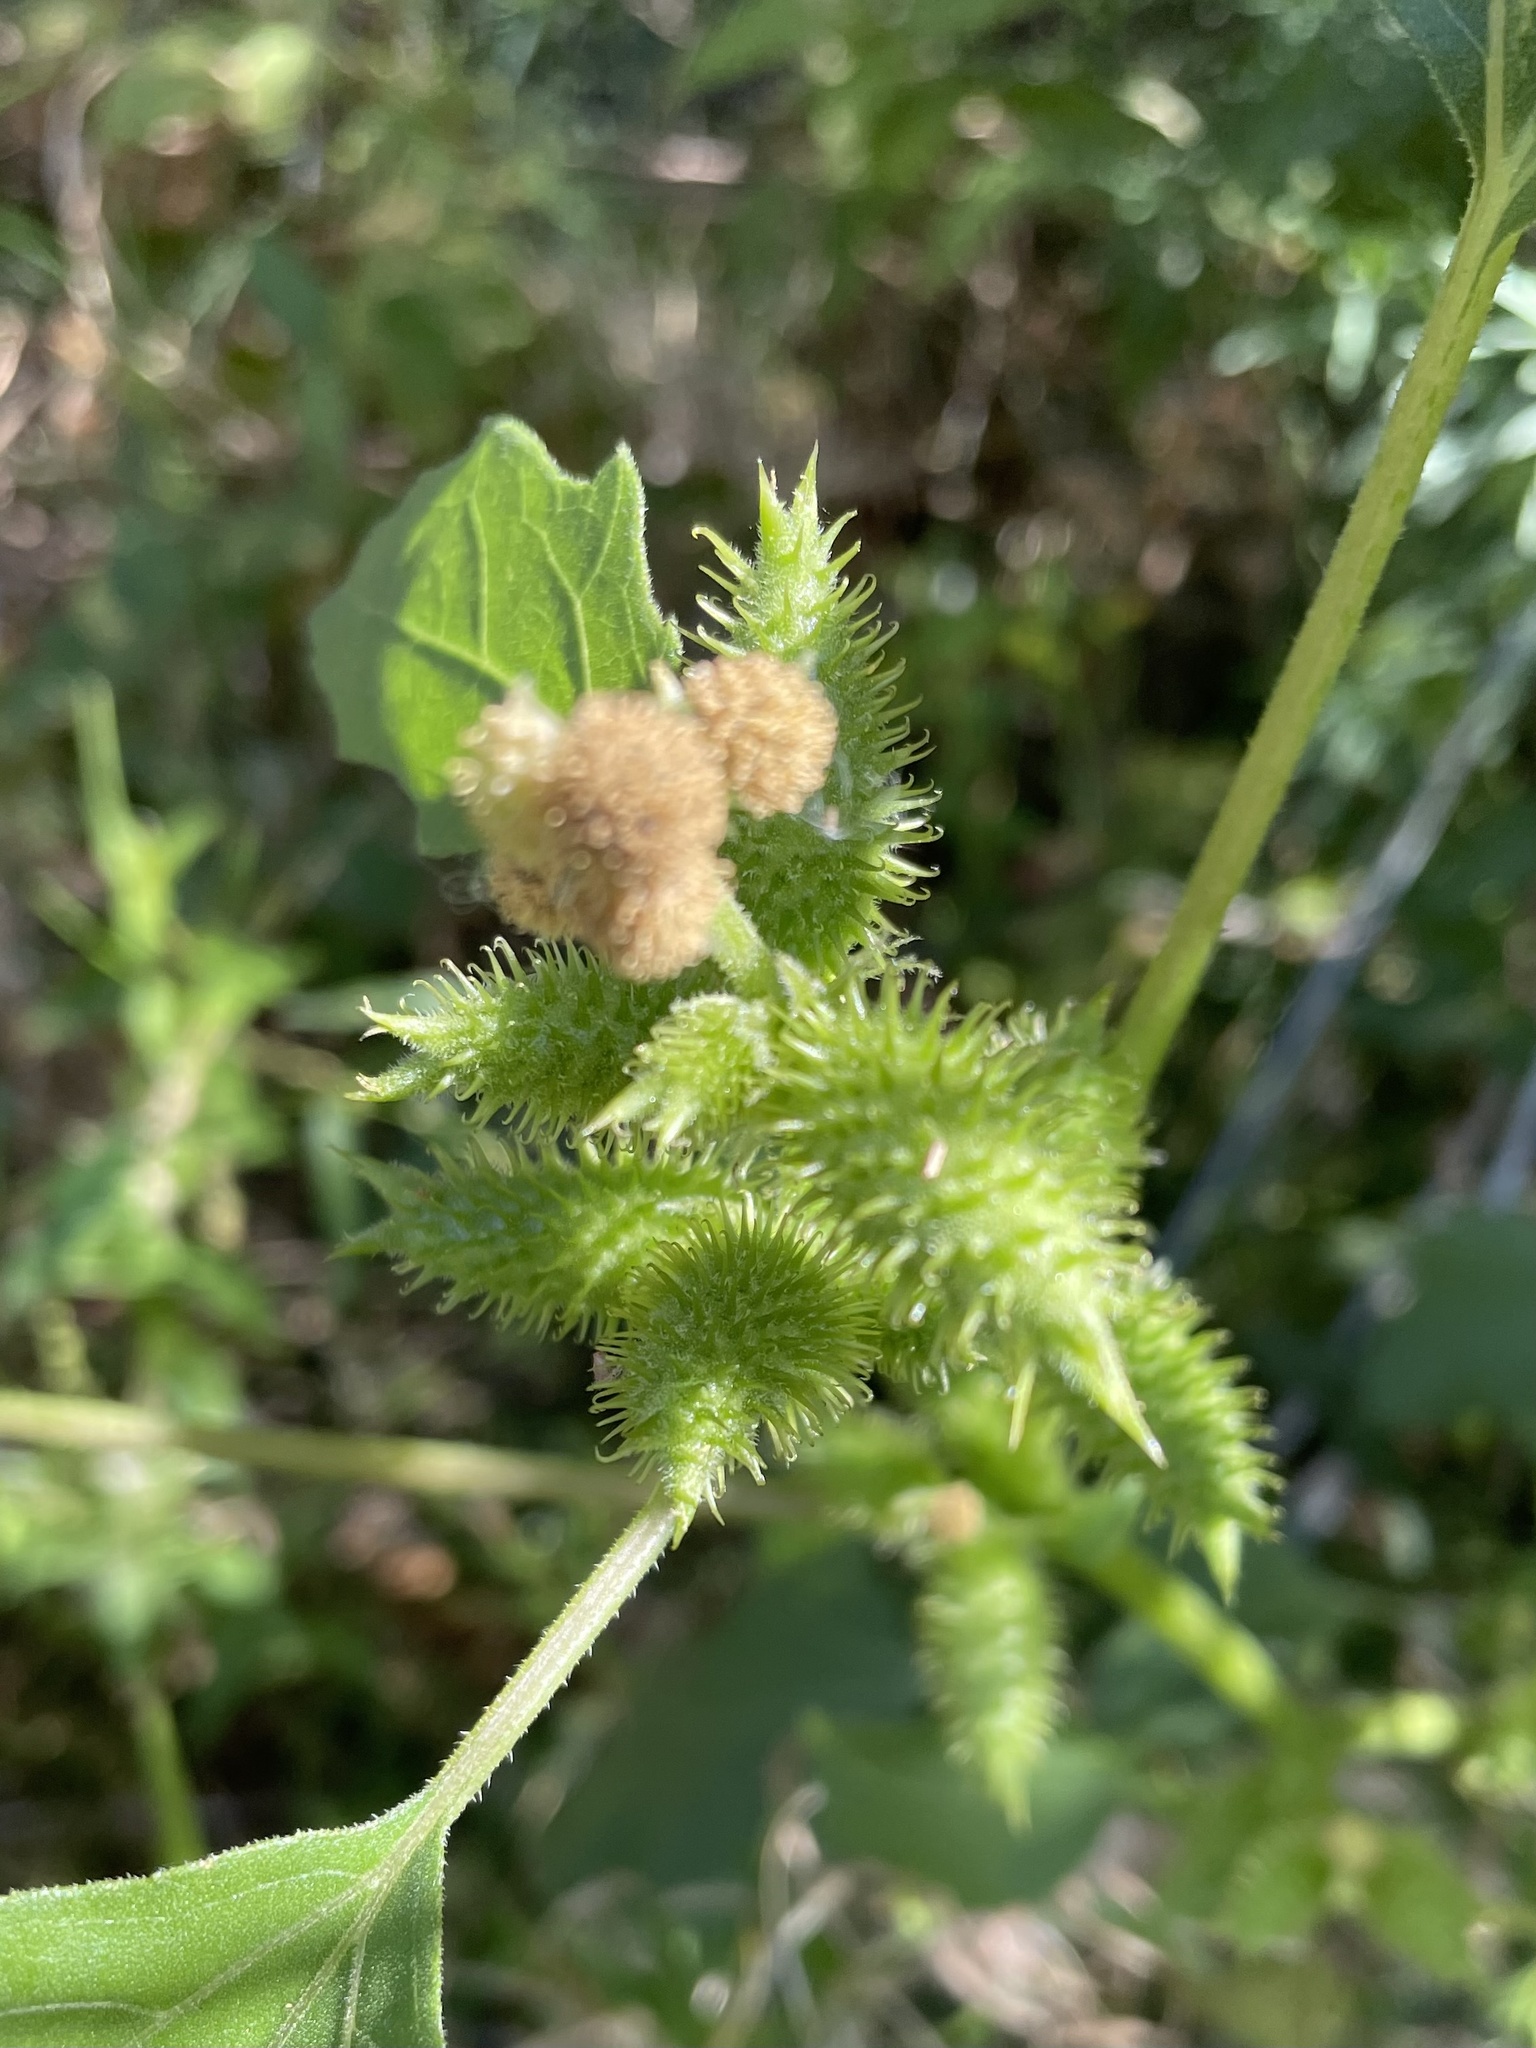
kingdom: Plantae
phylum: Tracheophyta
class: Magnoliopsida
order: Asterales
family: Asteraceae
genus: Xanthium
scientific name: Xanthium strumarium
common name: Rough cocklebur
